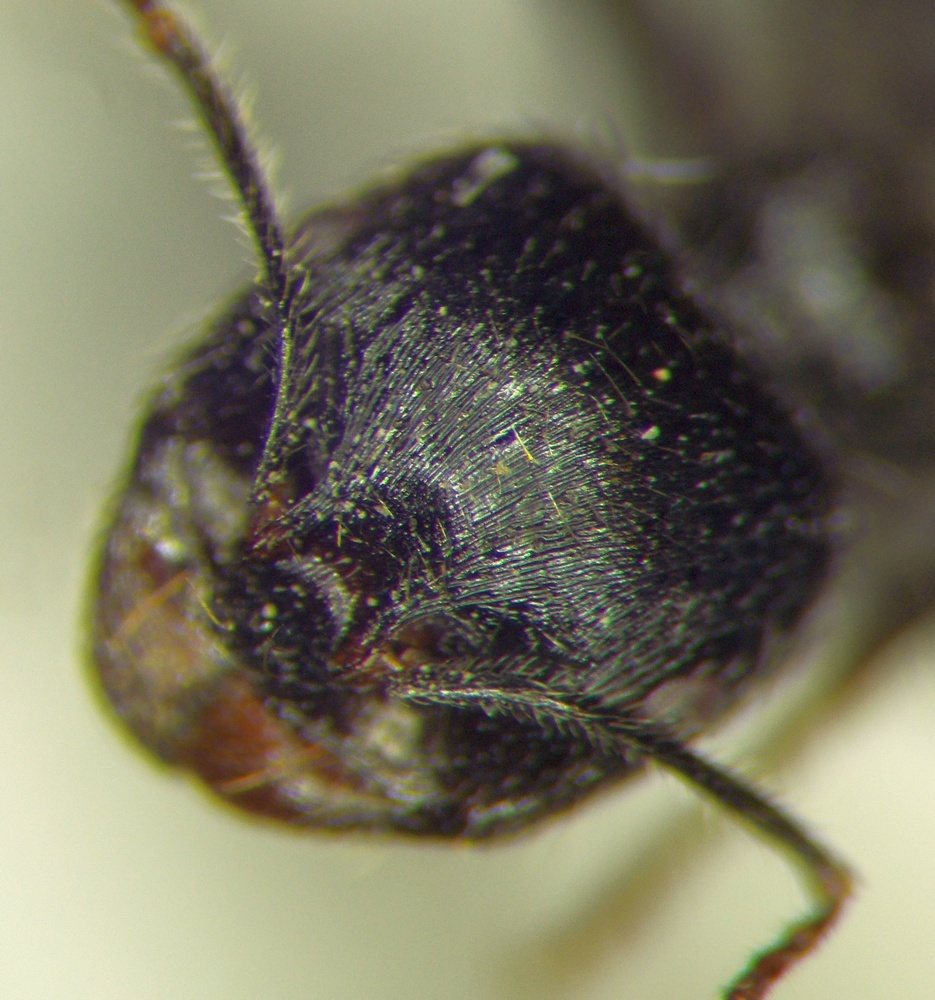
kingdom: Animalia
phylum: Arthropoda
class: Insecta
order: Hymenoptera
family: Formicidae
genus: Messor
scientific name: Messor structor
